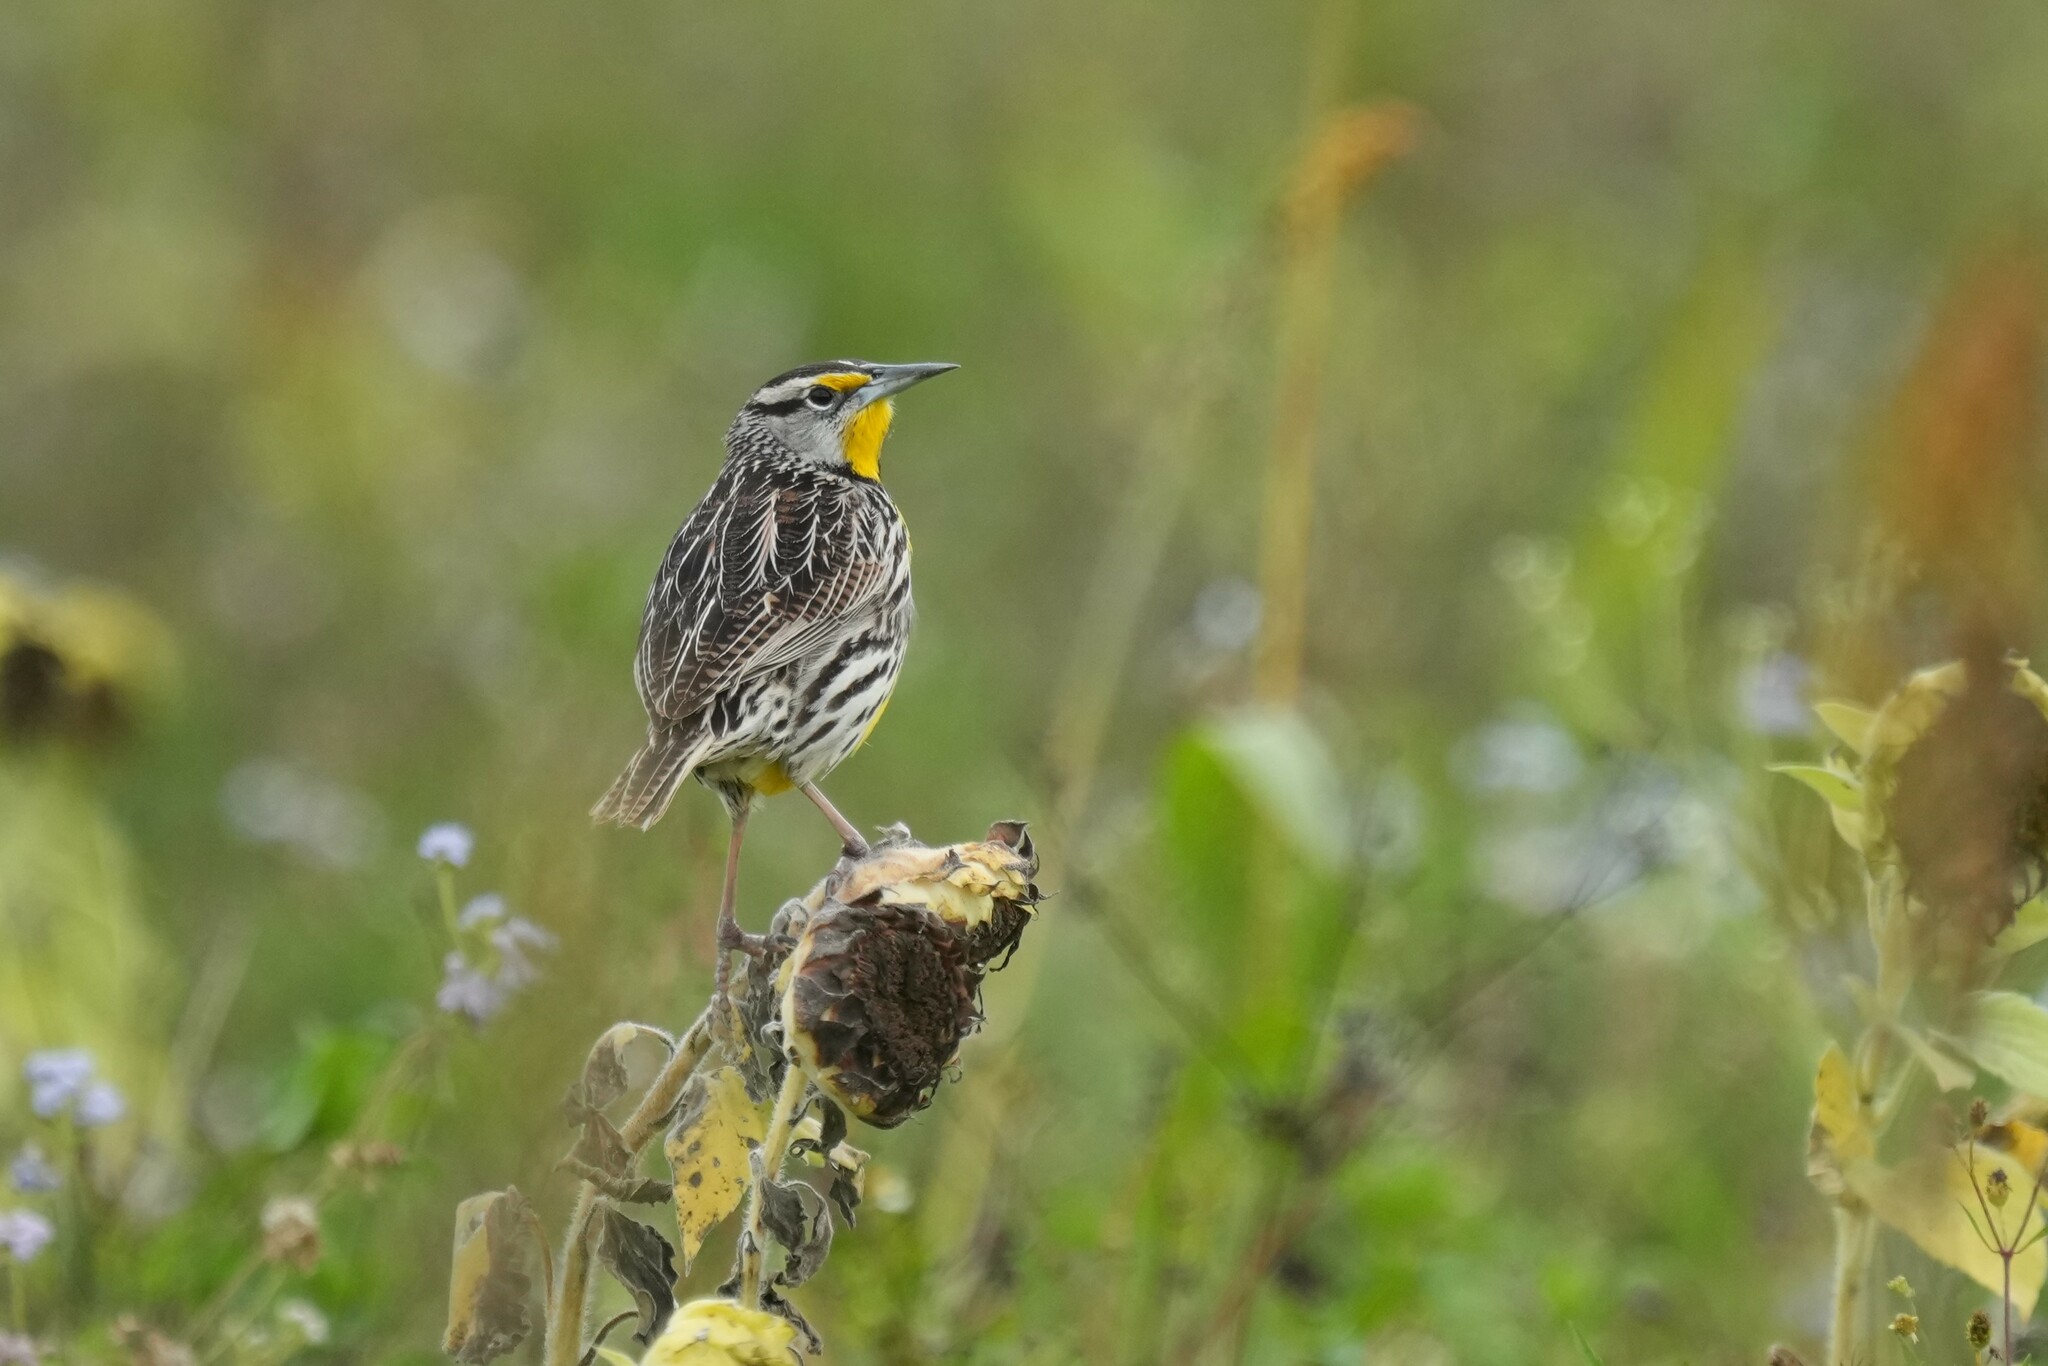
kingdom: Animalia
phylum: Chordata
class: Aves
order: Passeriformes
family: Icteridae
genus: Sturnella
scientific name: Sturnella magna
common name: Eastern meadowlark
